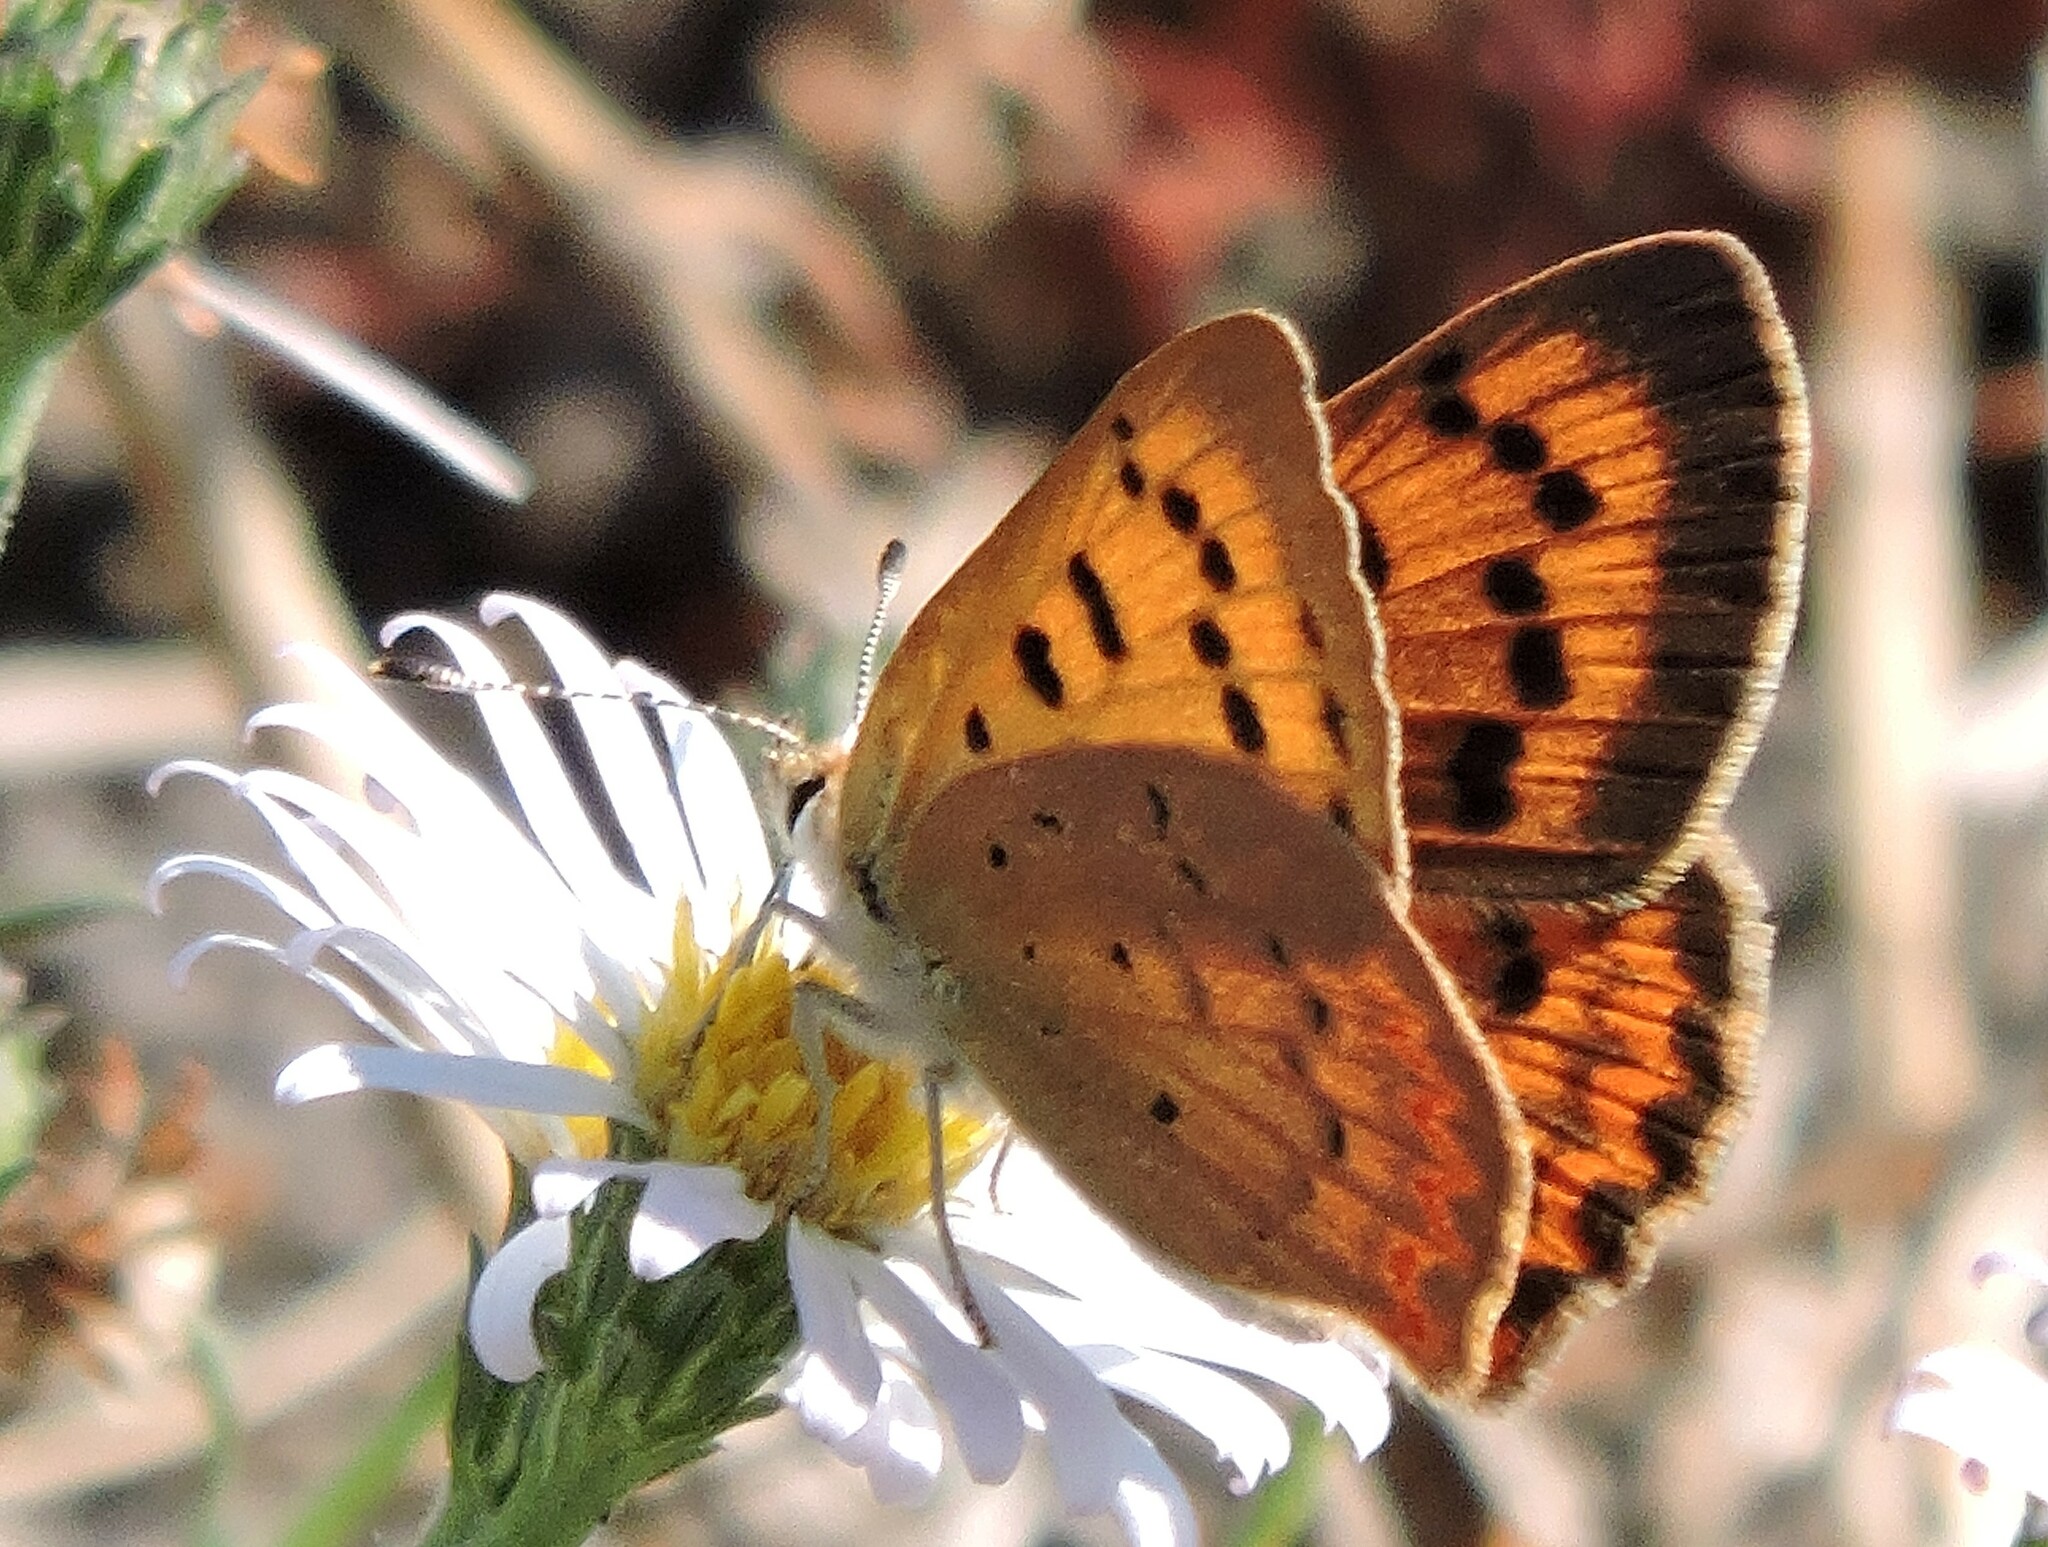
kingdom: Animalia
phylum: Arthropoda
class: Insecta
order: Lepidoptera
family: Lycaenidae
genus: Tharsalea
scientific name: Tharsalea helloides
